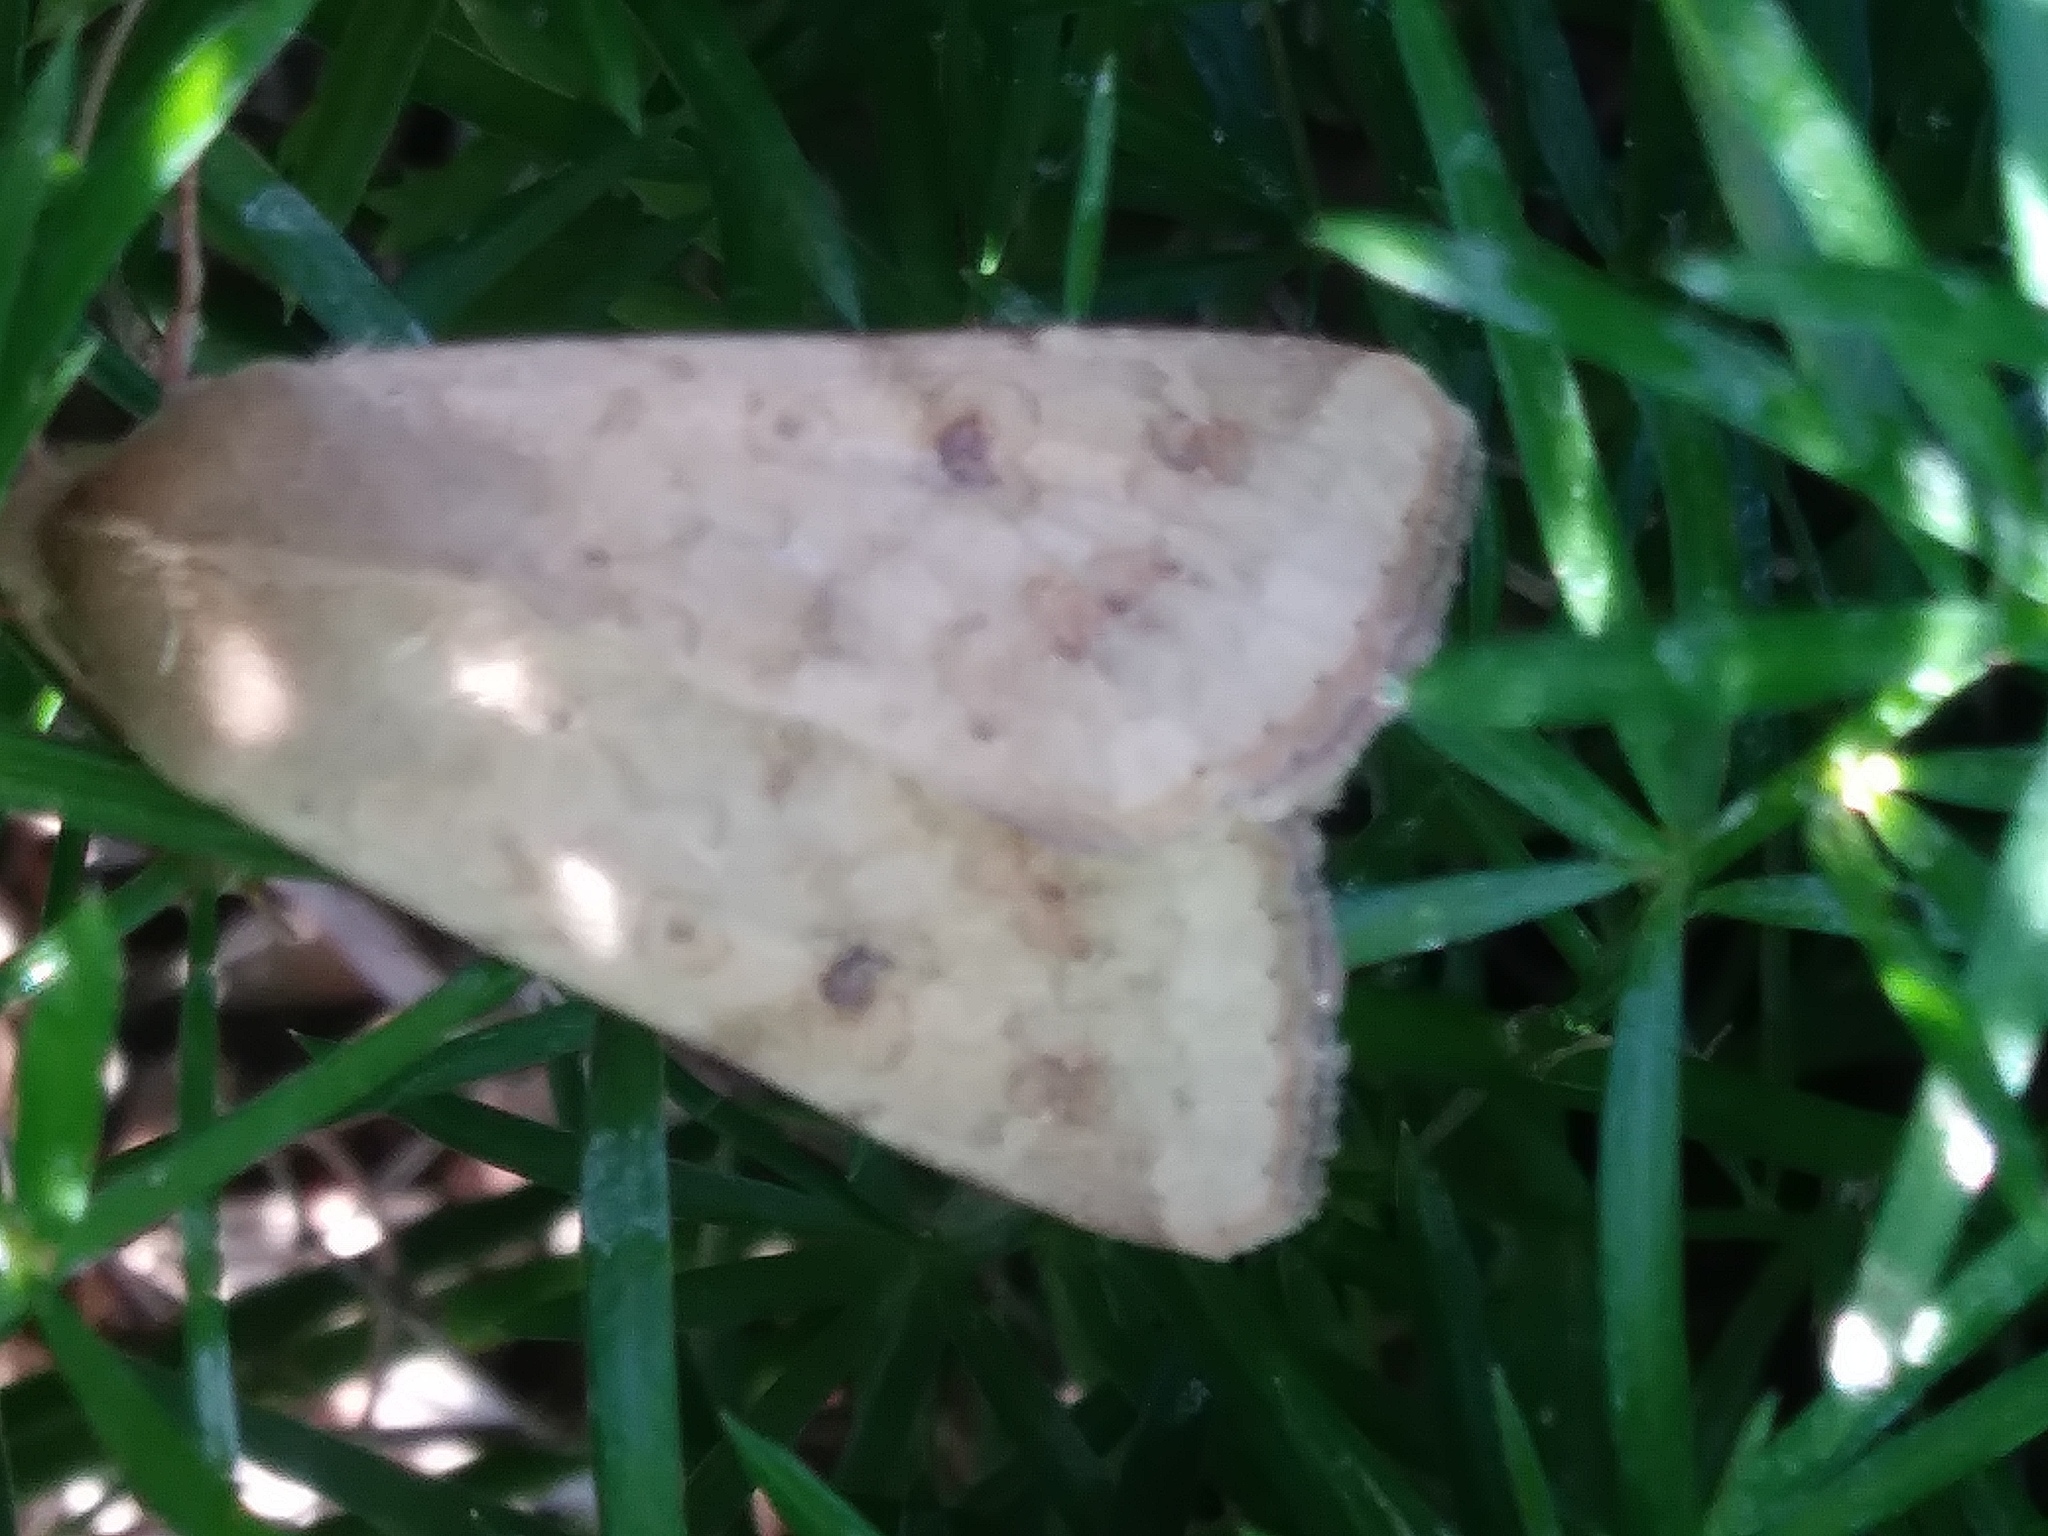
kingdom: Animalia
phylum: Arthropoda
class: Insecta
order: Lepidoptera
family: Noctuidae
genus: Helicoverpa
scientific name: Helicoverpa zea
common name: Bollworm
